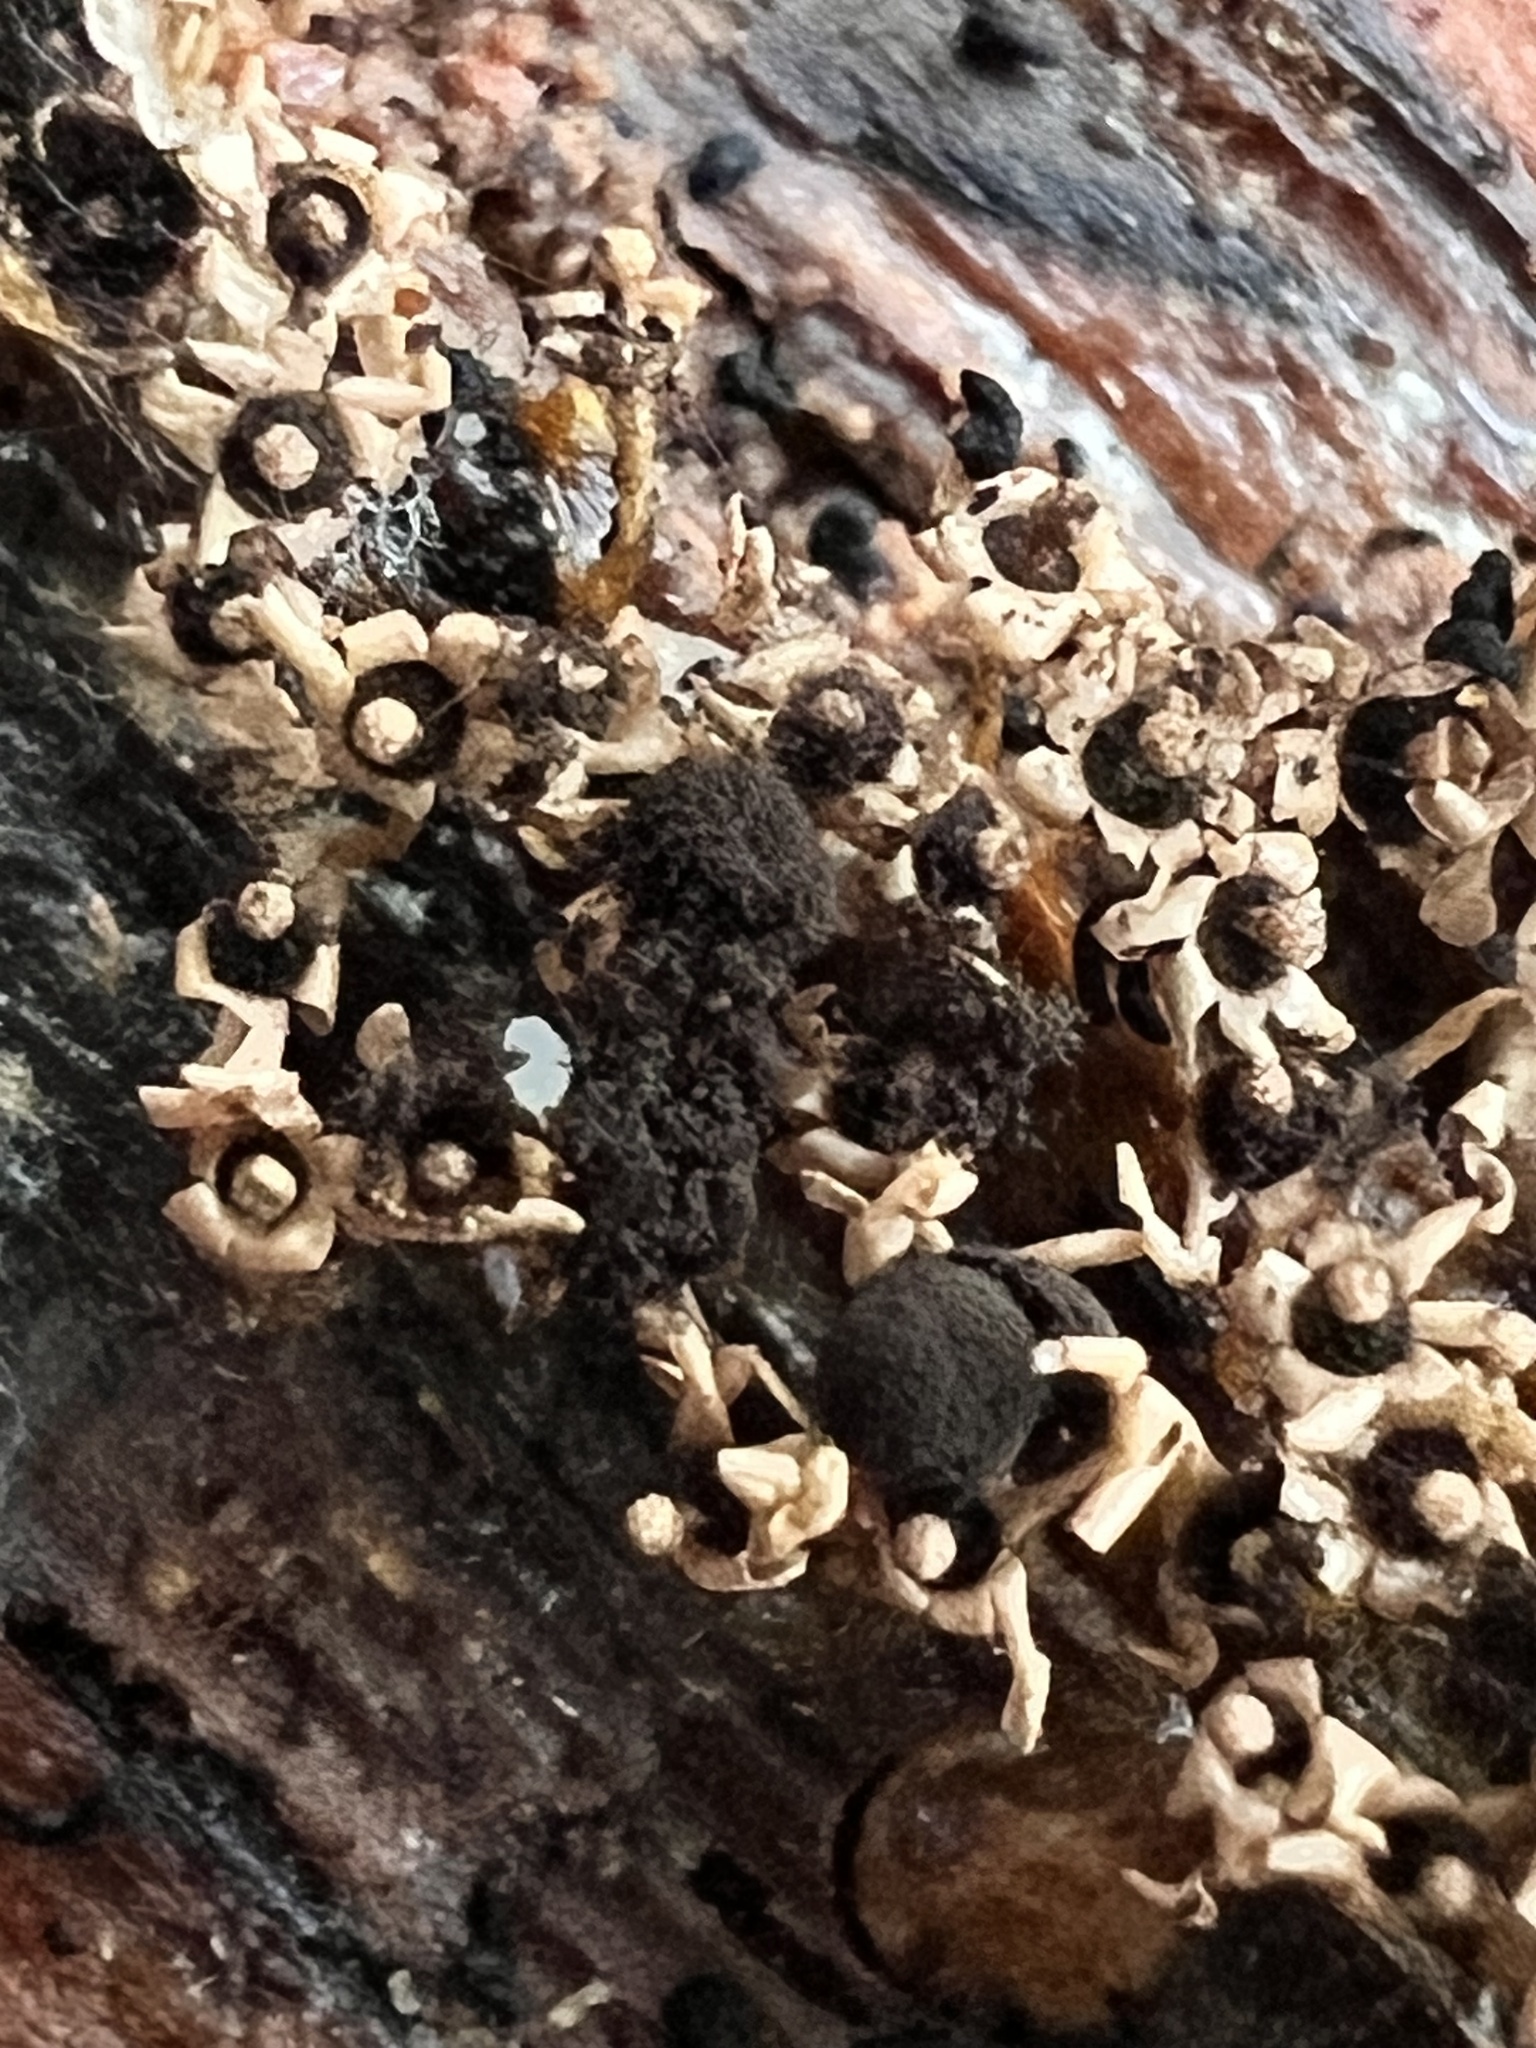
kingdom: Protozoa
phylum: Mycetozoa
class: Myxomycetes
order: Physarales
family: Didymiaceae
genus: Diderma
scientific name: Diderma floriforme
